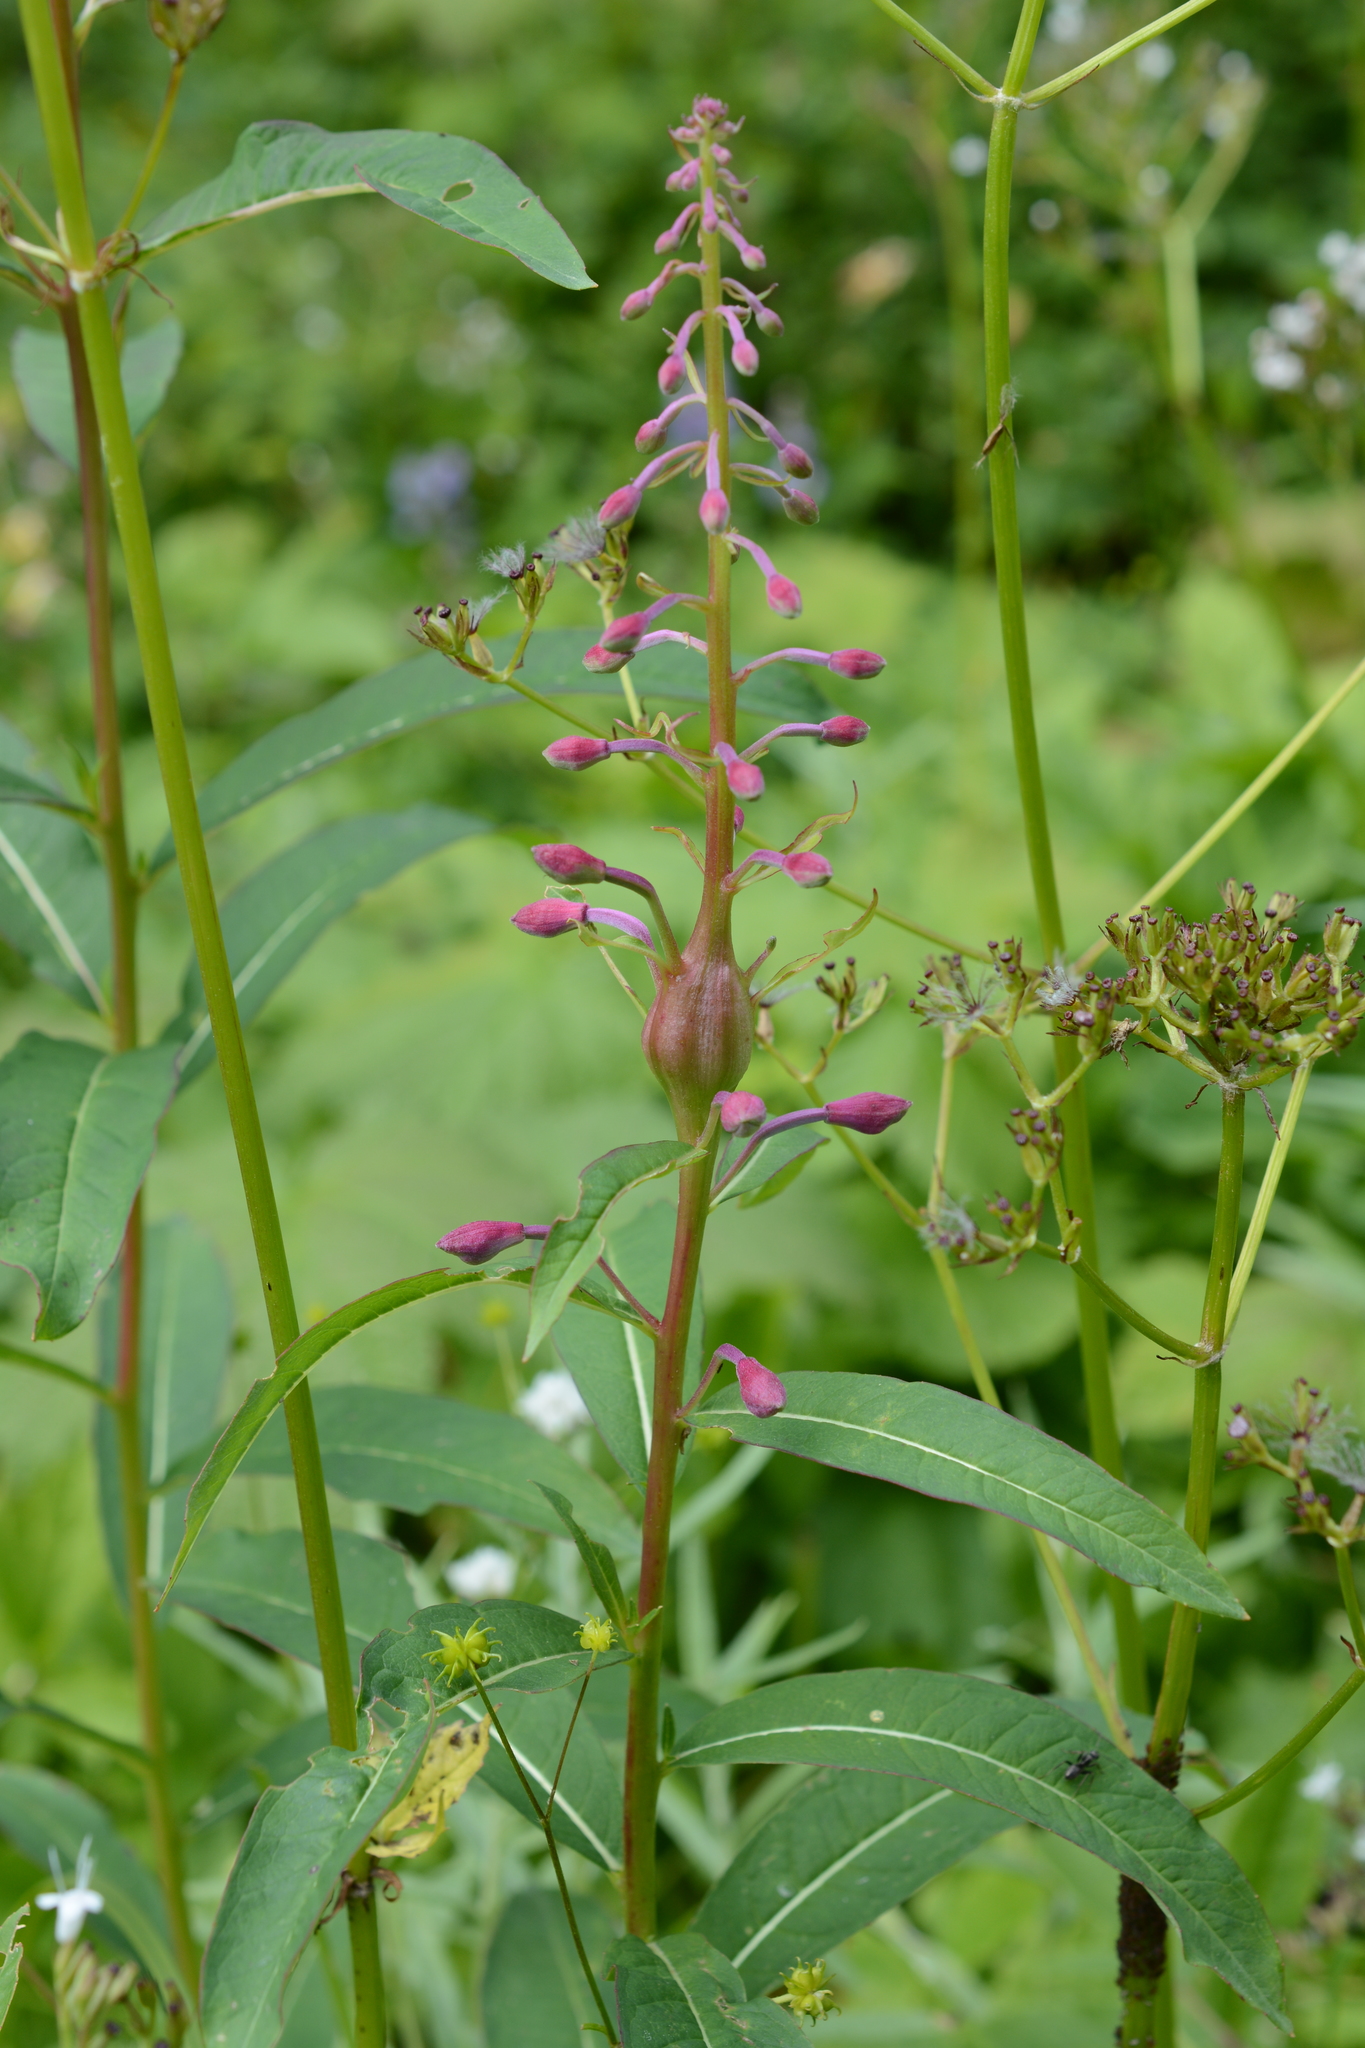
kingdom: Plantae
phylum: Tracheophyta
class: Magnoliopsida
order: Myrtales
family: Onagraceae
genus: Chamaenerion
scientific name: Chamaenerion angustifolium
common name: Fireweed
